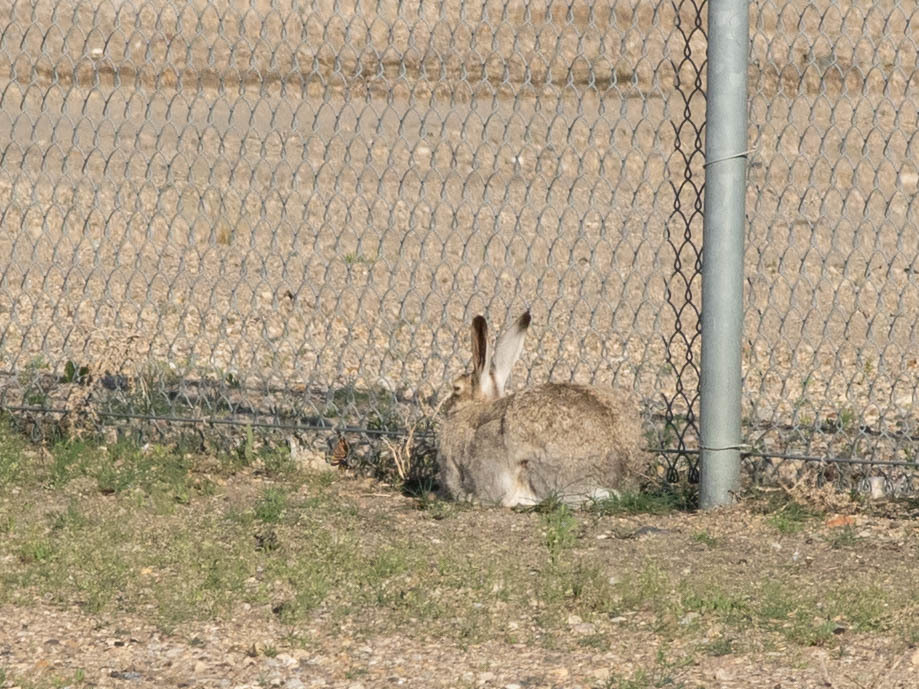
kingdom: Animalia
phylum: Chordata
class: Mammalia
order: Lagomorpha
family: Leporidae
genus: Lepus
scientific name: Lepus townsendii
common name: White-tailed jackrabbit
